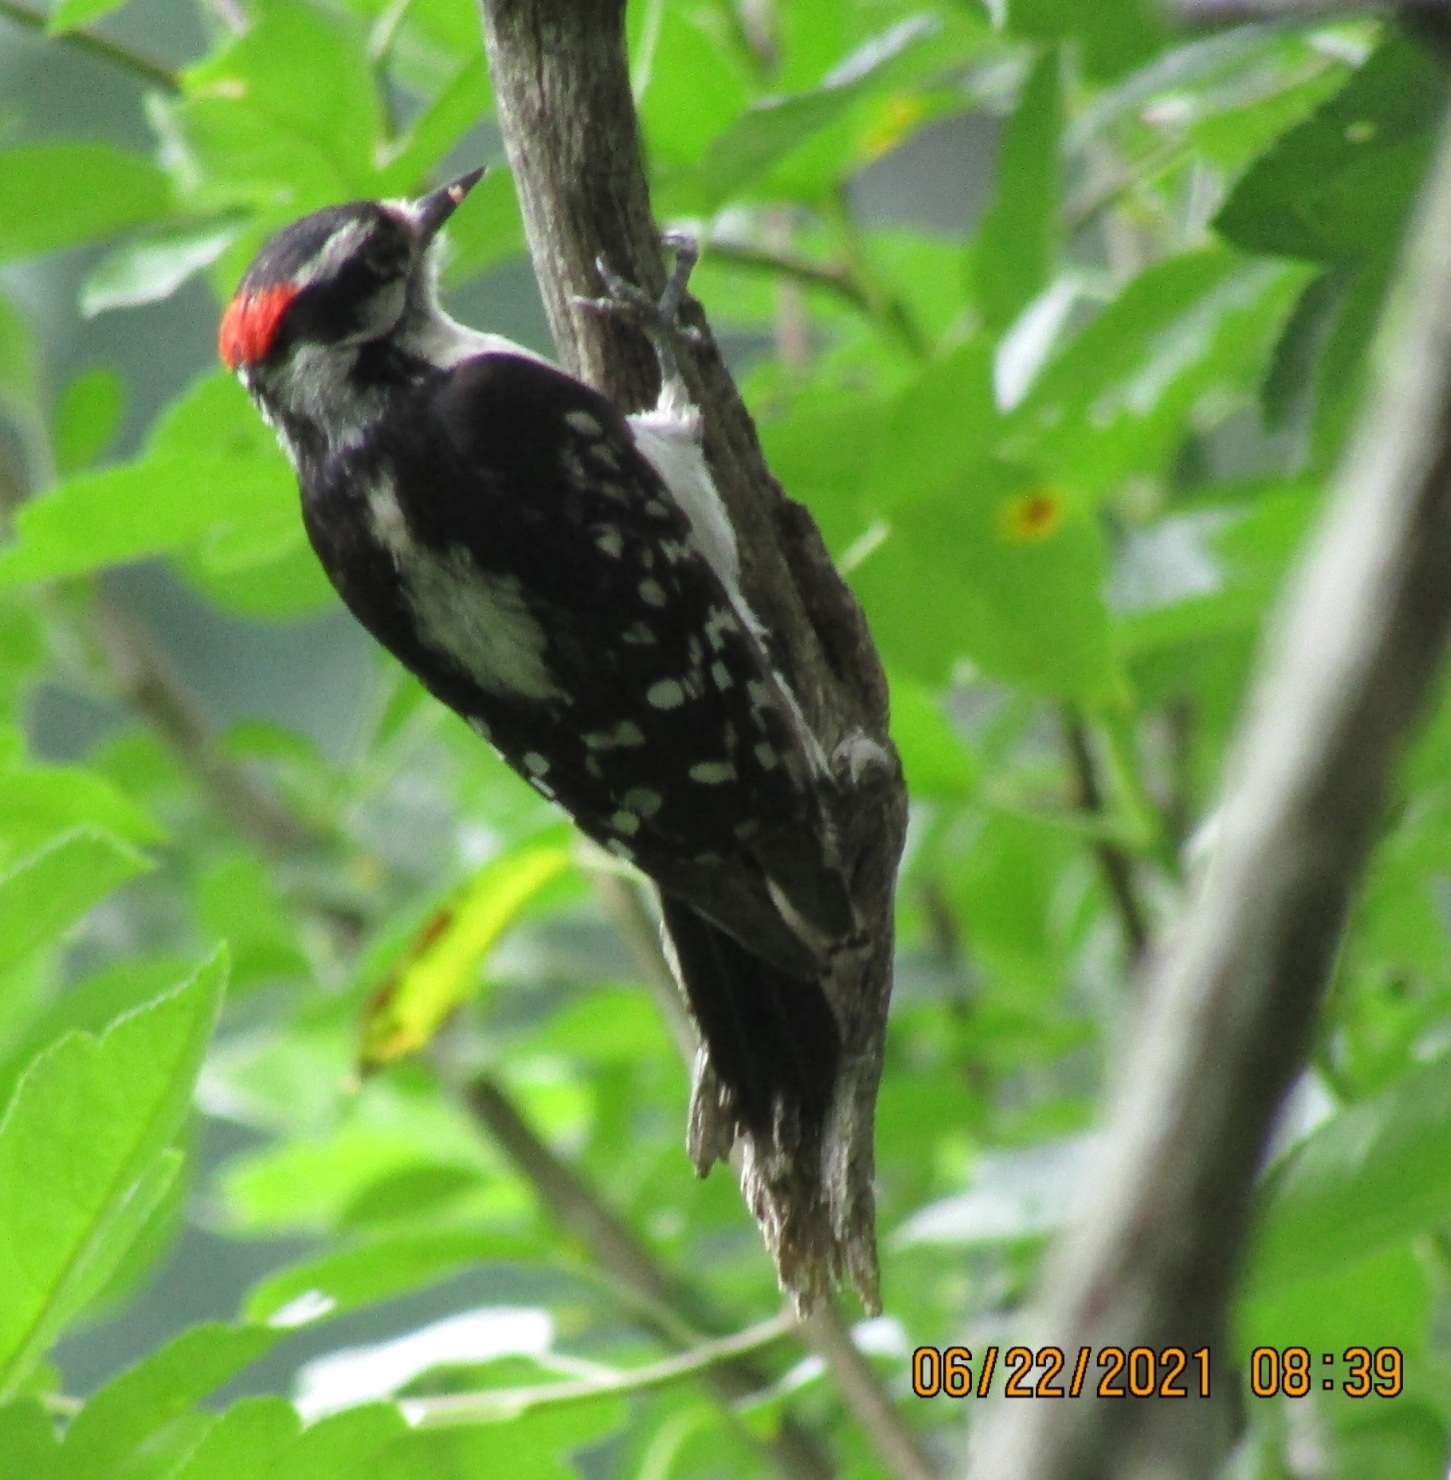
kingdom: Animalia
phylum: Chordata
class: Aves
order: Piciformes
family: Picidae
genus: Dryobates
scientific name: Dryobates pubescens
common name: Downy woodpecker
